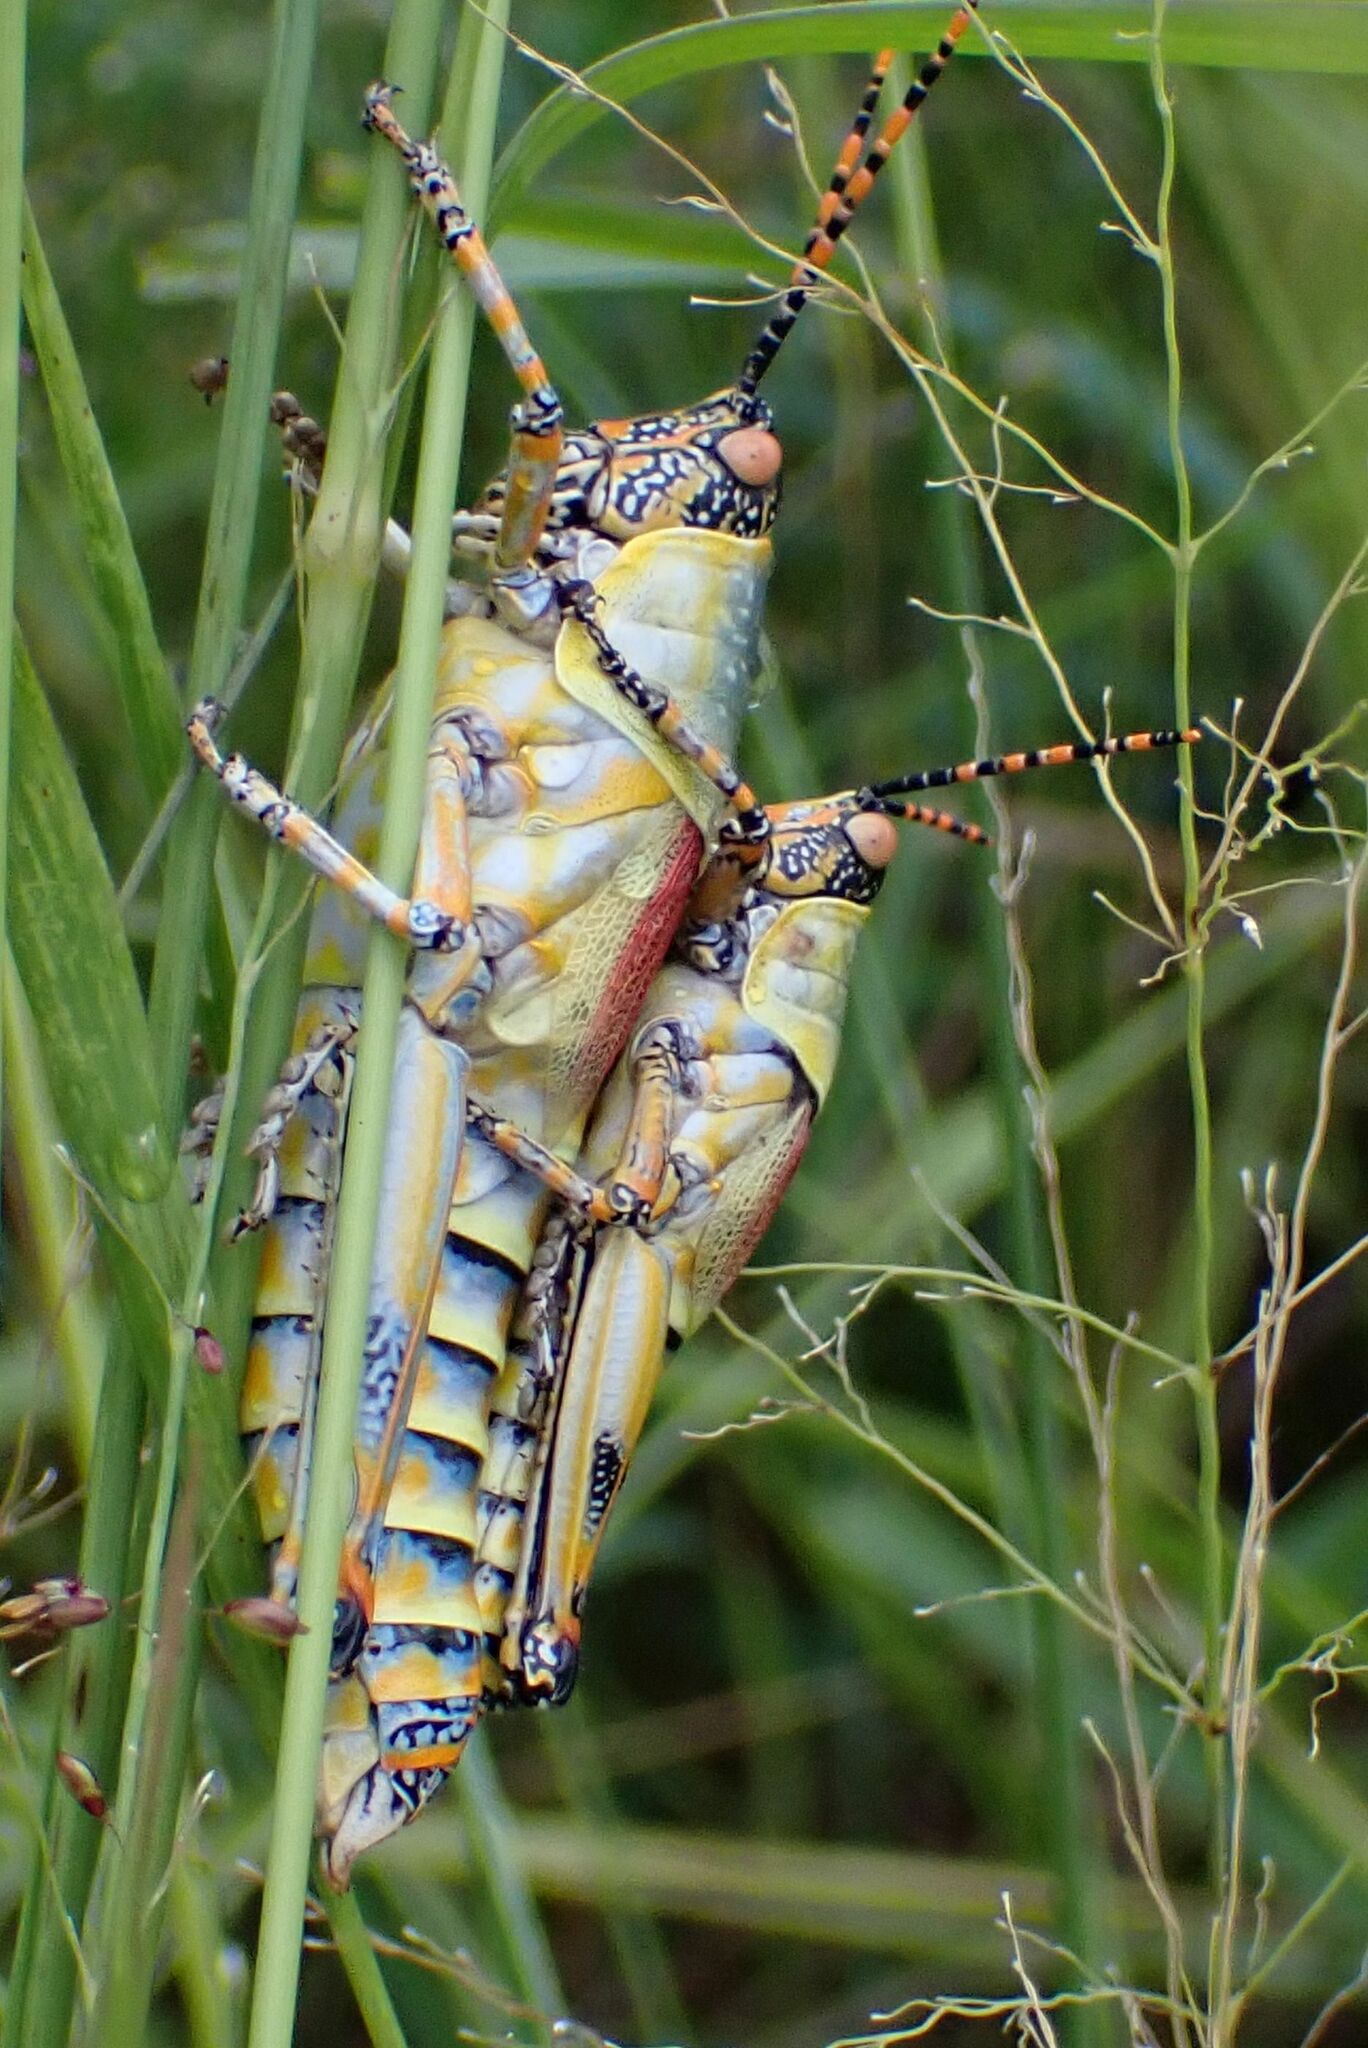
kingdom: Animalia
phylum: Arthropoda
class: Insecta
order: Orthoptera
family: Pyrgomorphidae
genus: Zonocerus
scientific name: Zonocerus elegans
